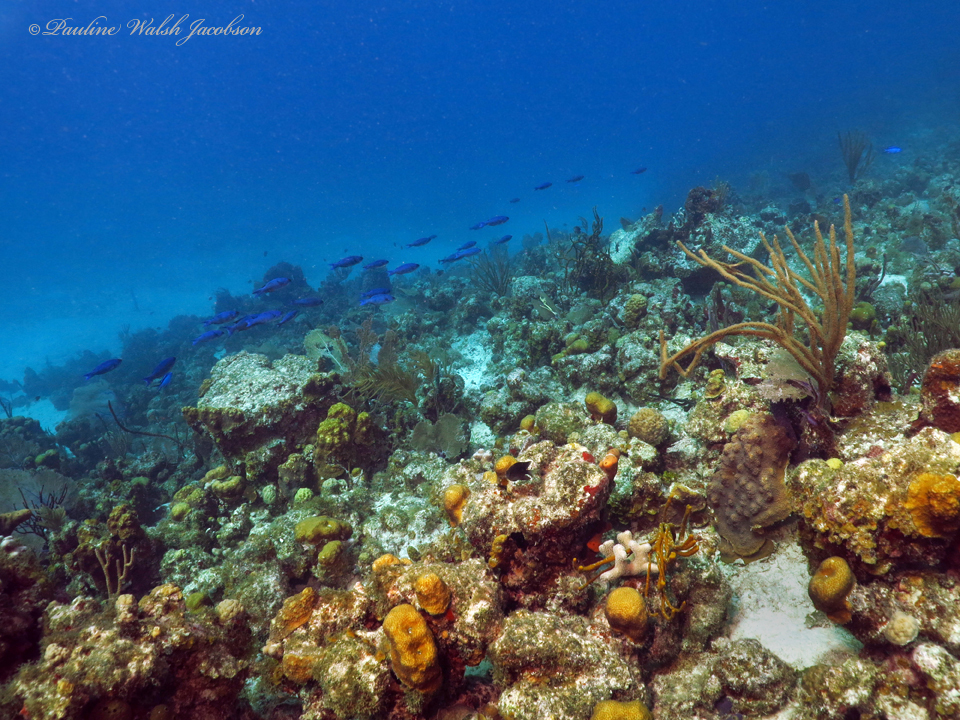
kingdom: Animalia
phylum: Chordata
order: Perciformes
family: Labridae
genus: Bodianus
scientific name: Bodianus
